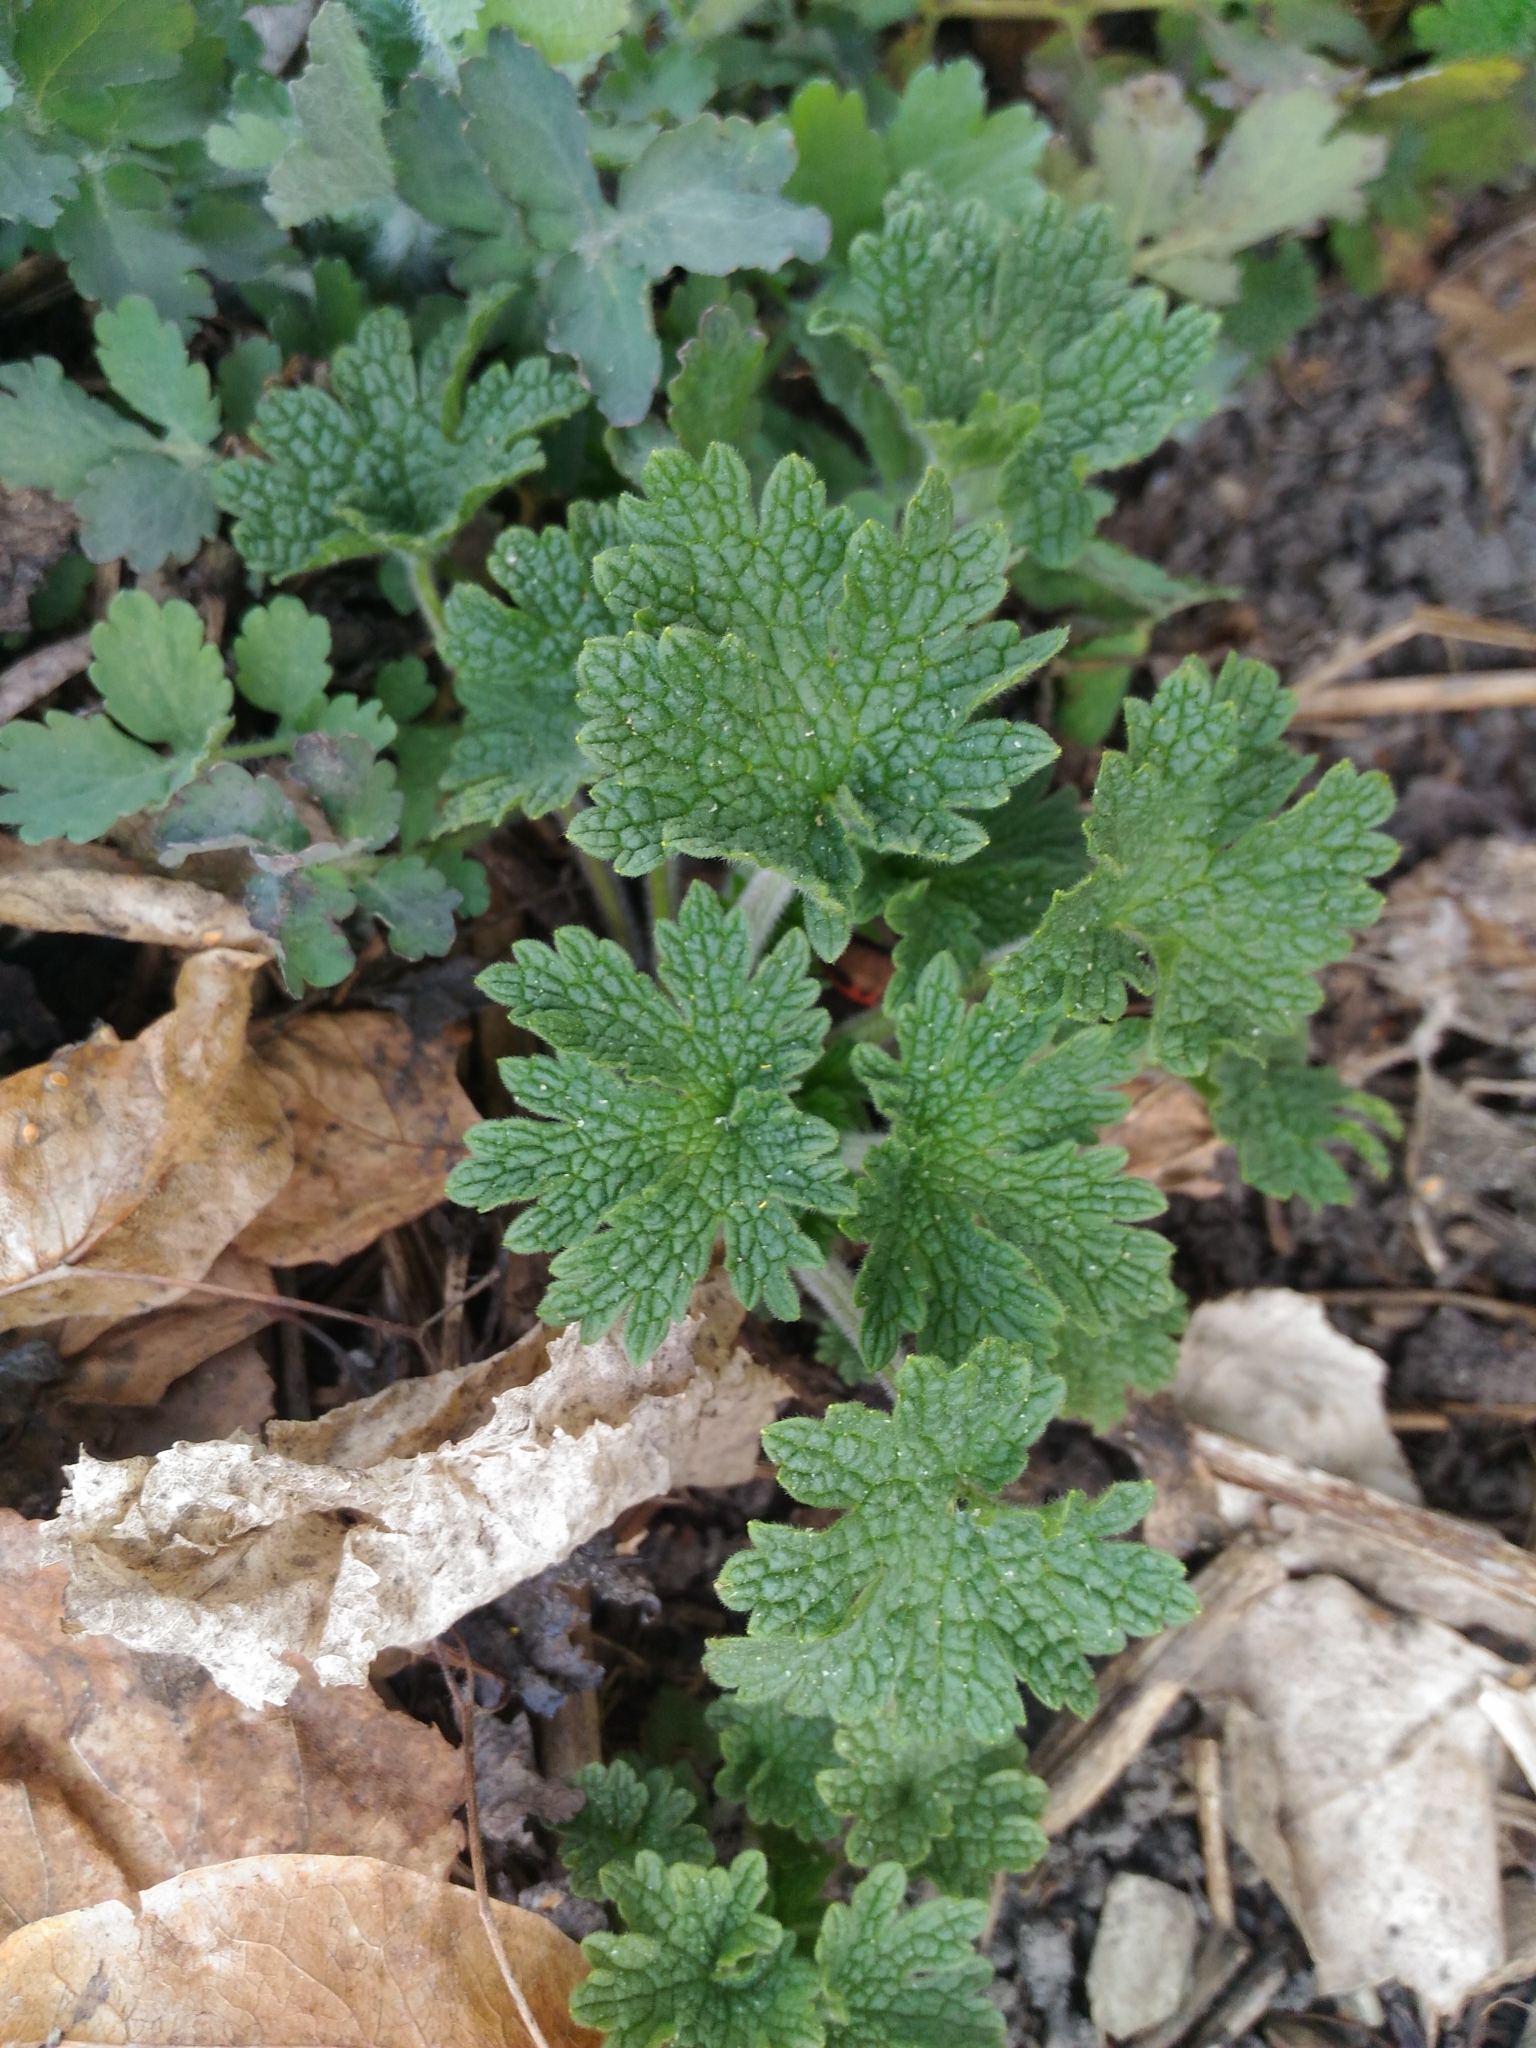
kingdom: Plantae
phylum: Tracheophyta
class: Magnoliopsida
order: Lamiales
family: Lamiaceae
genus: Leonurus
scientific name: Leonurus quinquelobatus
